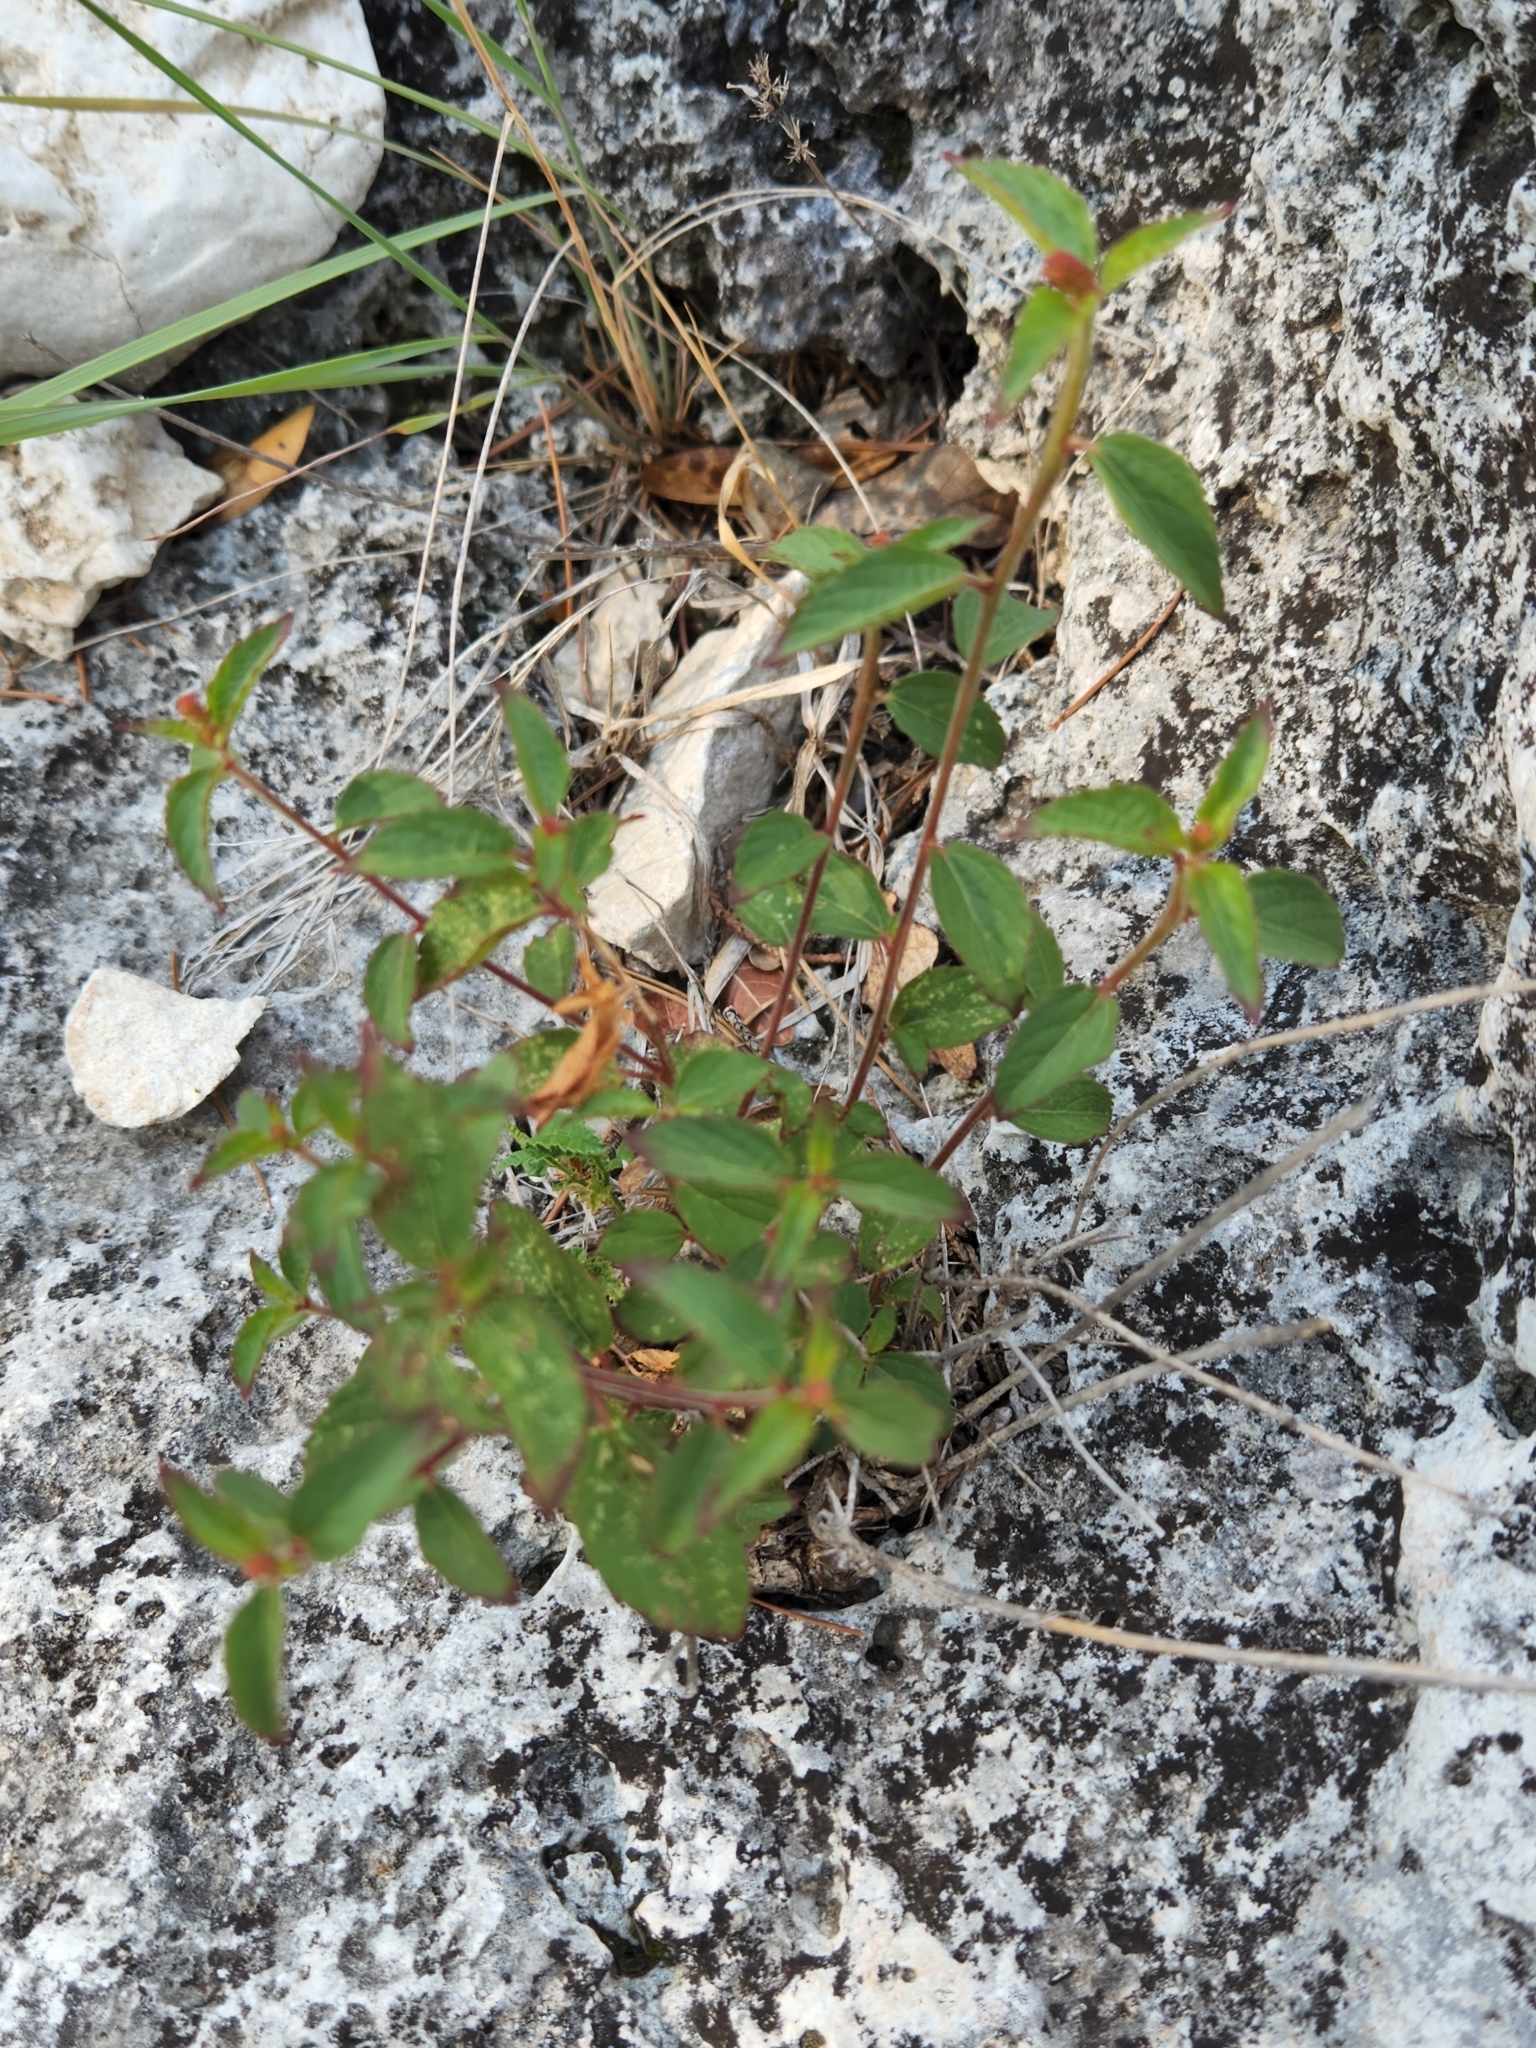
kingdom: Plantae
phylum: Tracheophyta
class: Magnoliopsida
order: Malpighiales
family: Euphorbiaceae
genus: Acalypha
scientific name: Acalypha phleoides
